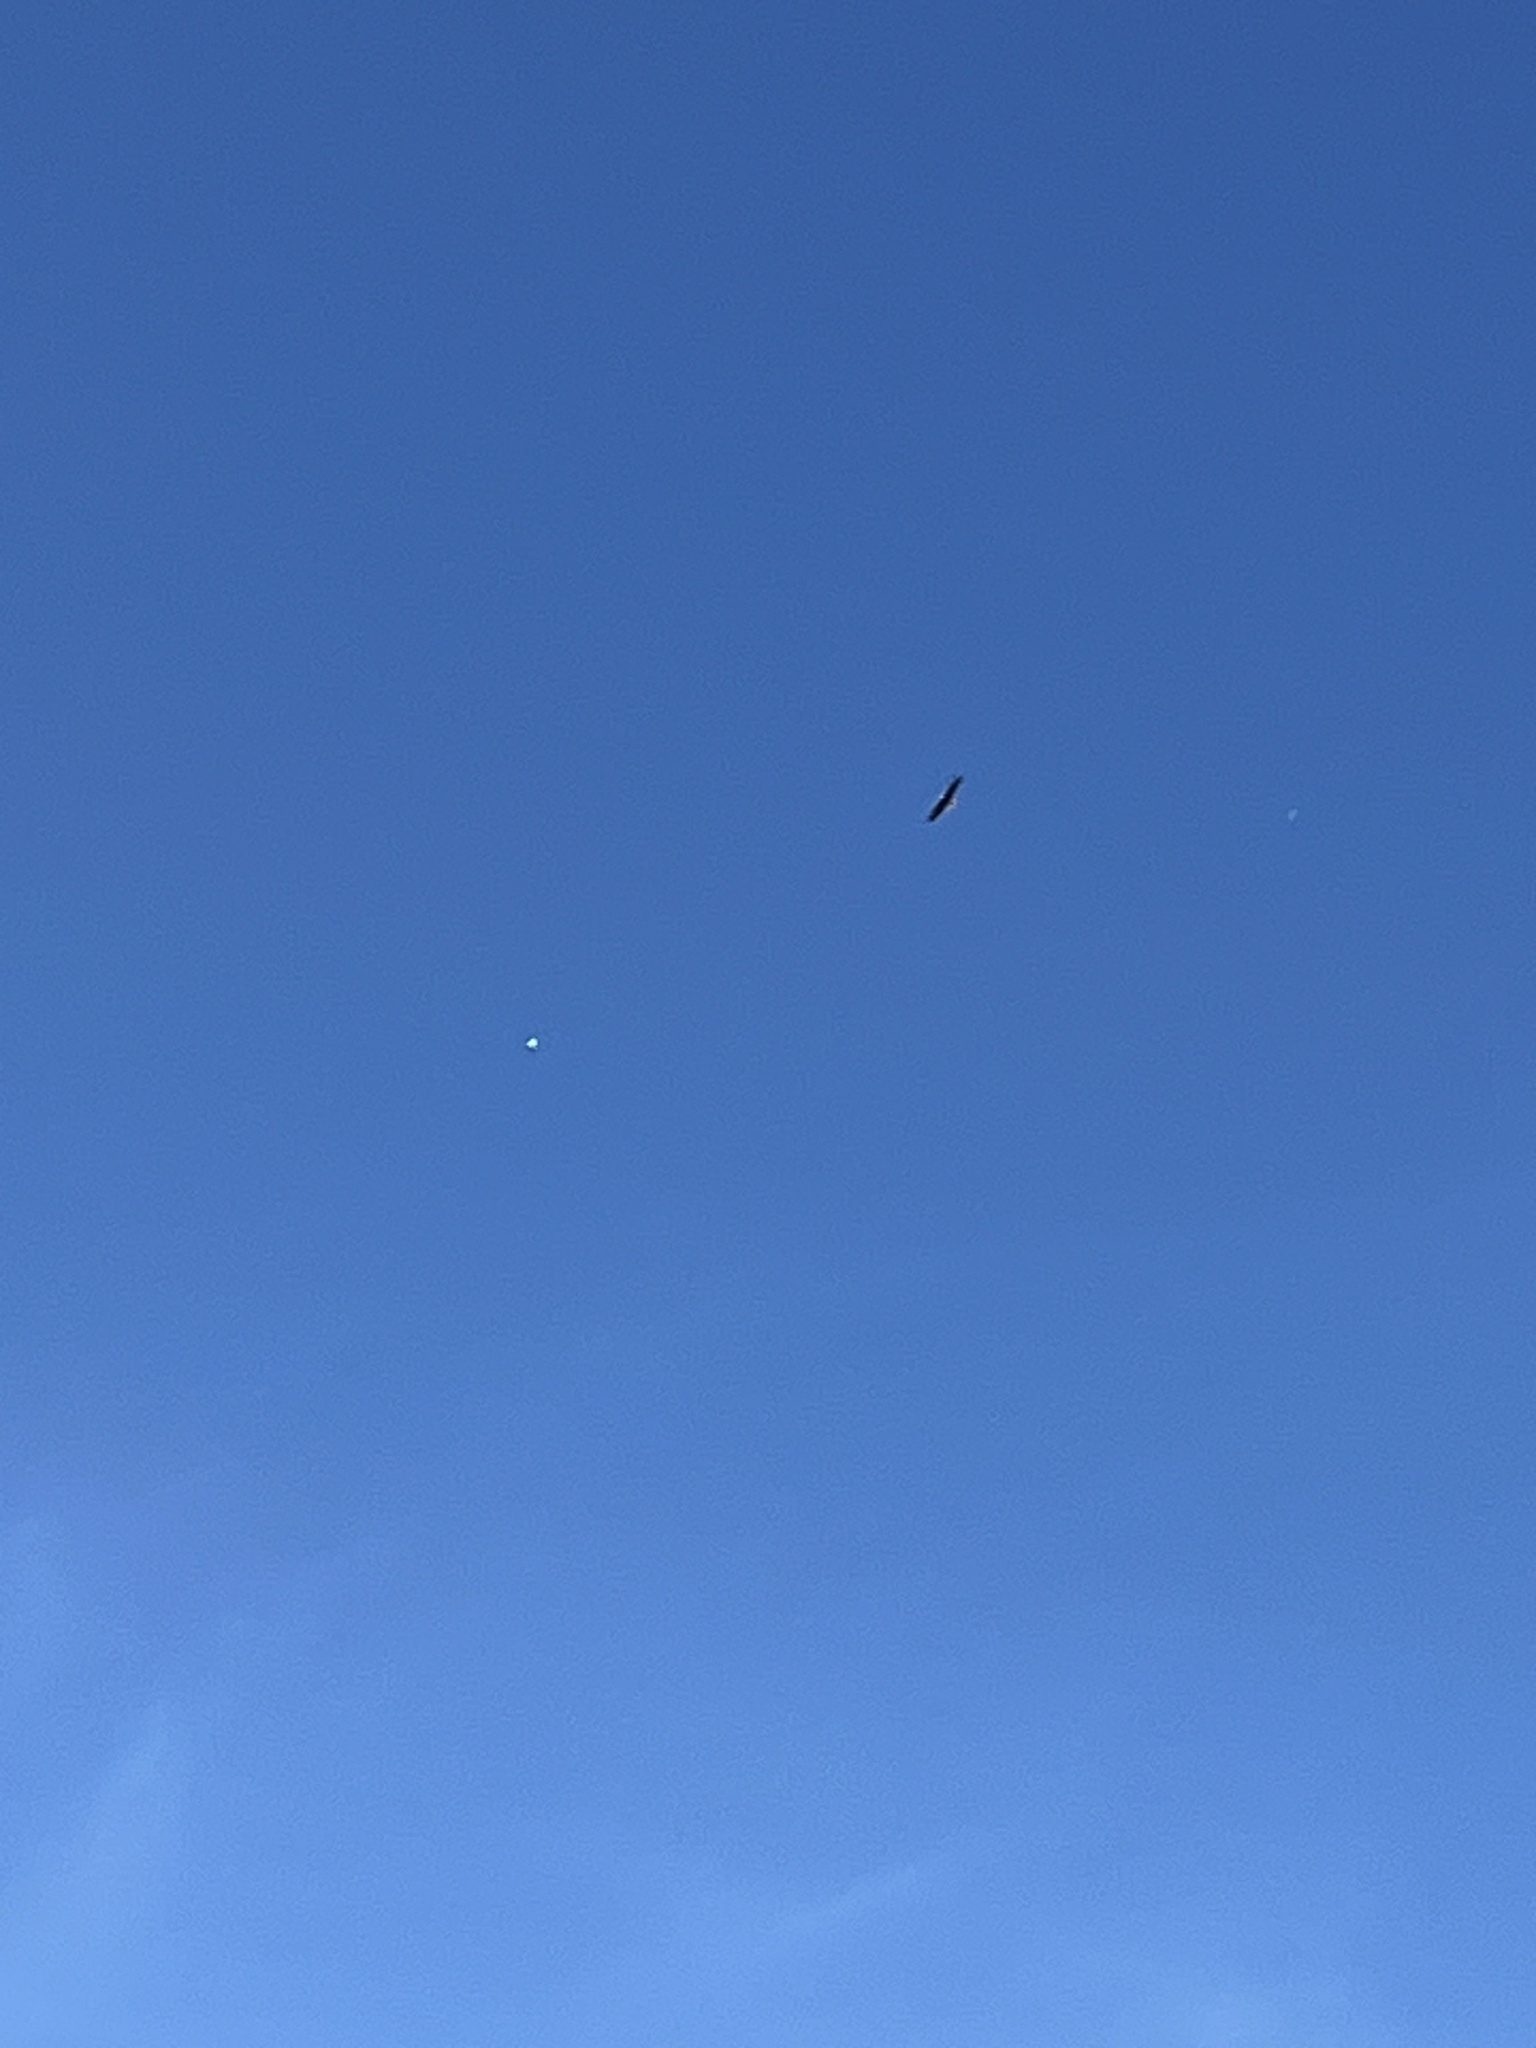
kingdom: Animalia
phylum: Chordata
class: Aves
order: Accipitriformes
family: Accipitridae
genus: Haliaeetus
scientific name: Haliaeetus leucocephalus
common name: Bald eagle
